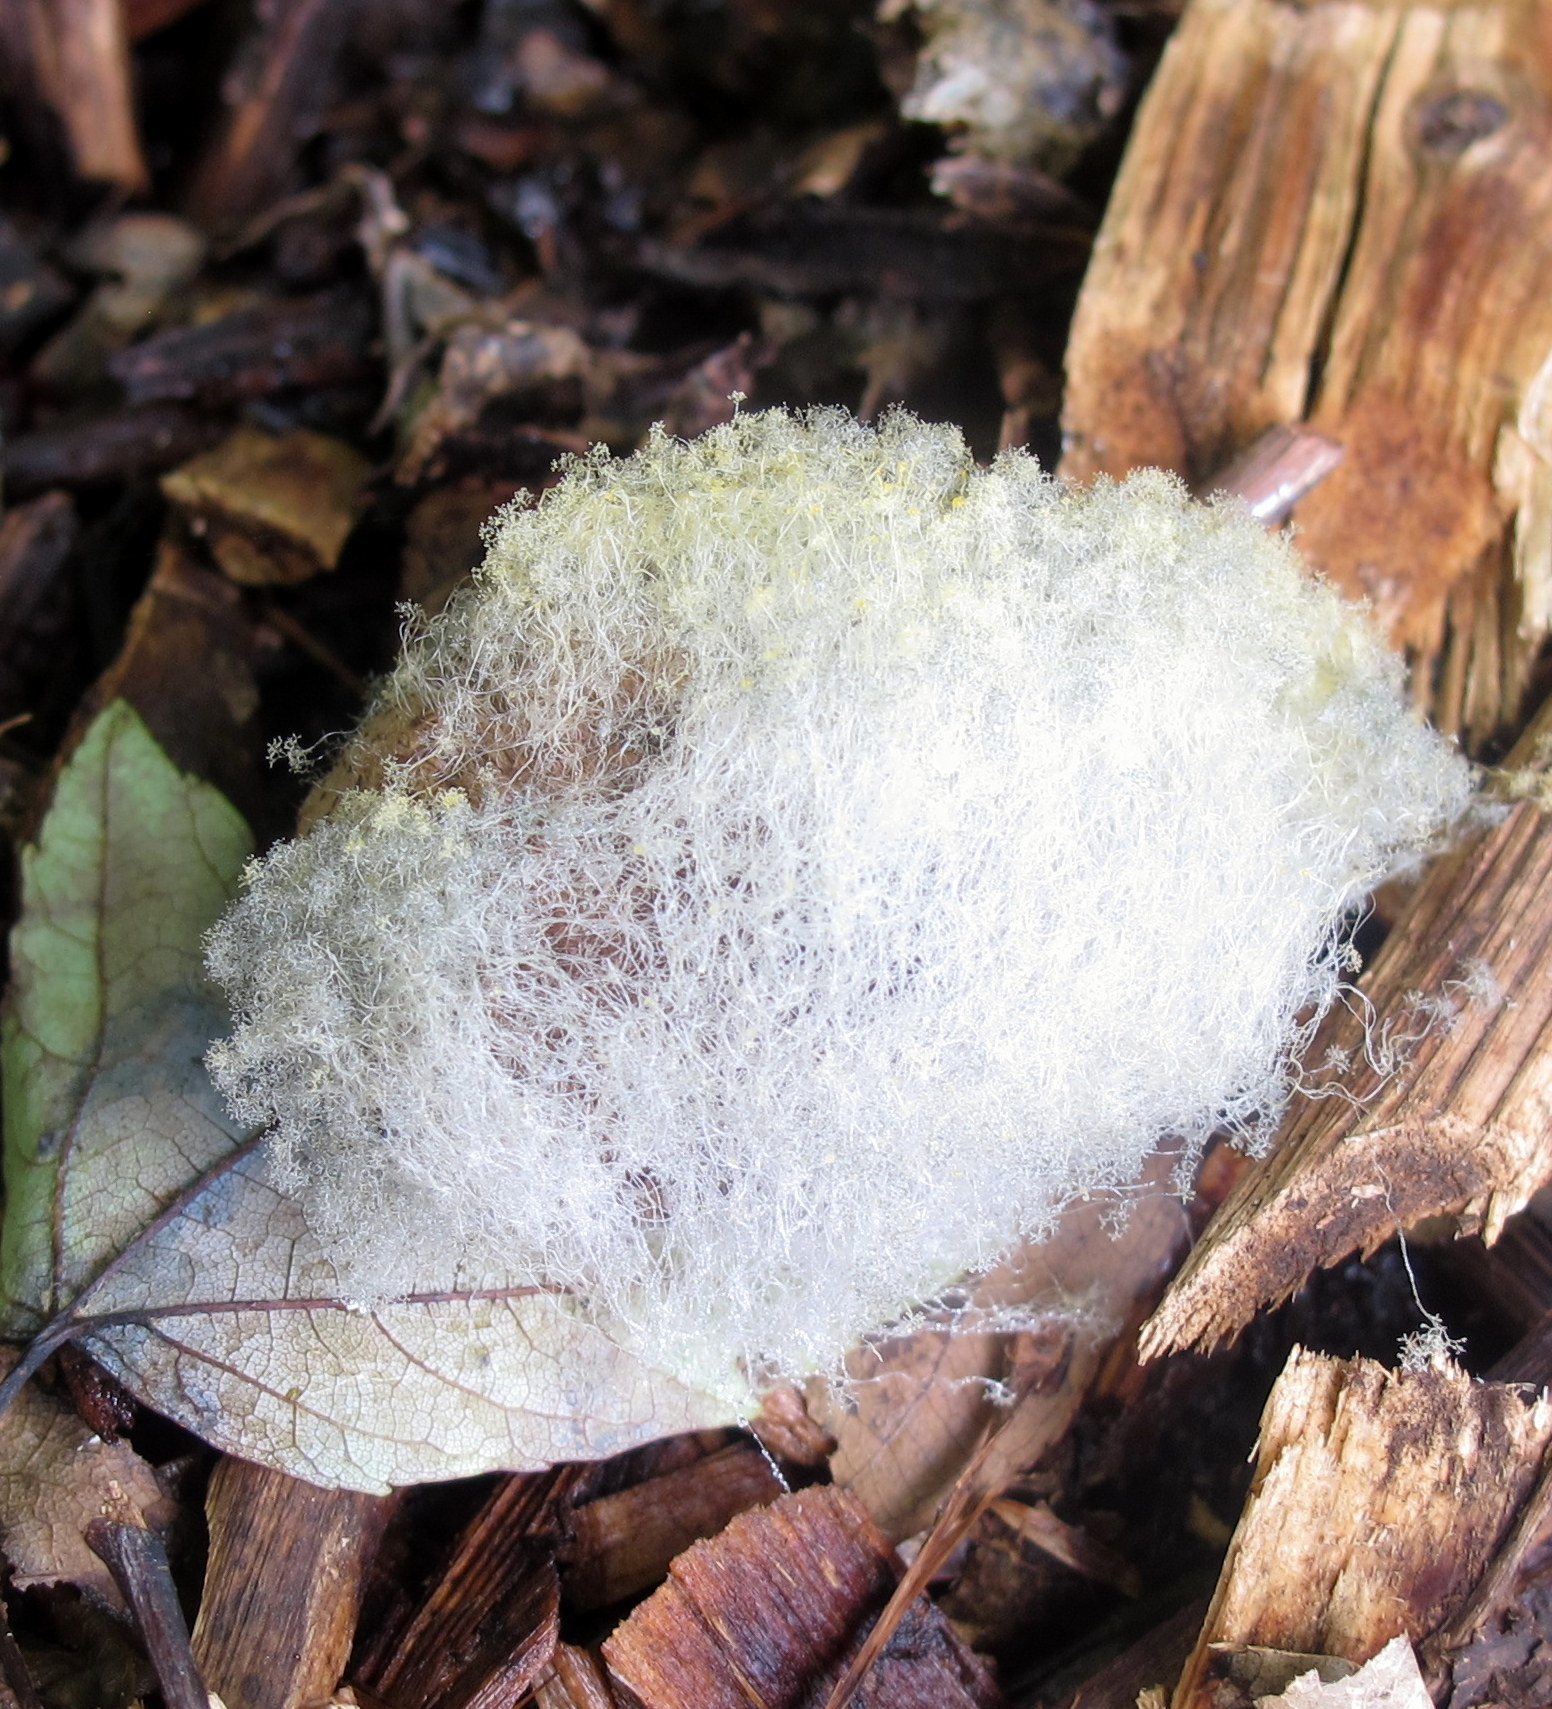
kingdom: Fungi
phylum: Mucoromycota
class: Mucoromycetes
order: Mucorales
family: Rhizopodaceae
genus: Syzygites
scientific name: Syzygites megalocarpus
